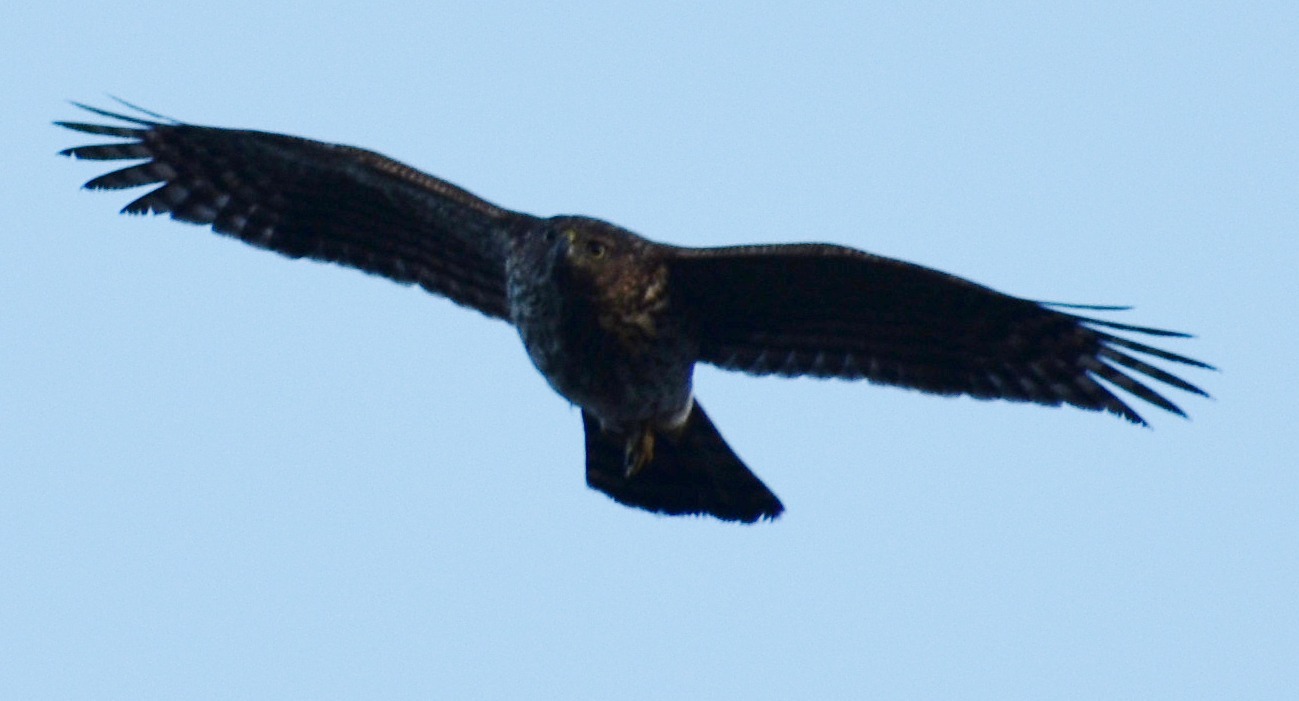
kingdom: Animalia
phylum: Chordata
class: Aves
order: Accipitriformes
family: Accipitridae
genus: Accipiter
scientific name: Accipiter cooperii
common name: Cooper's hawk
